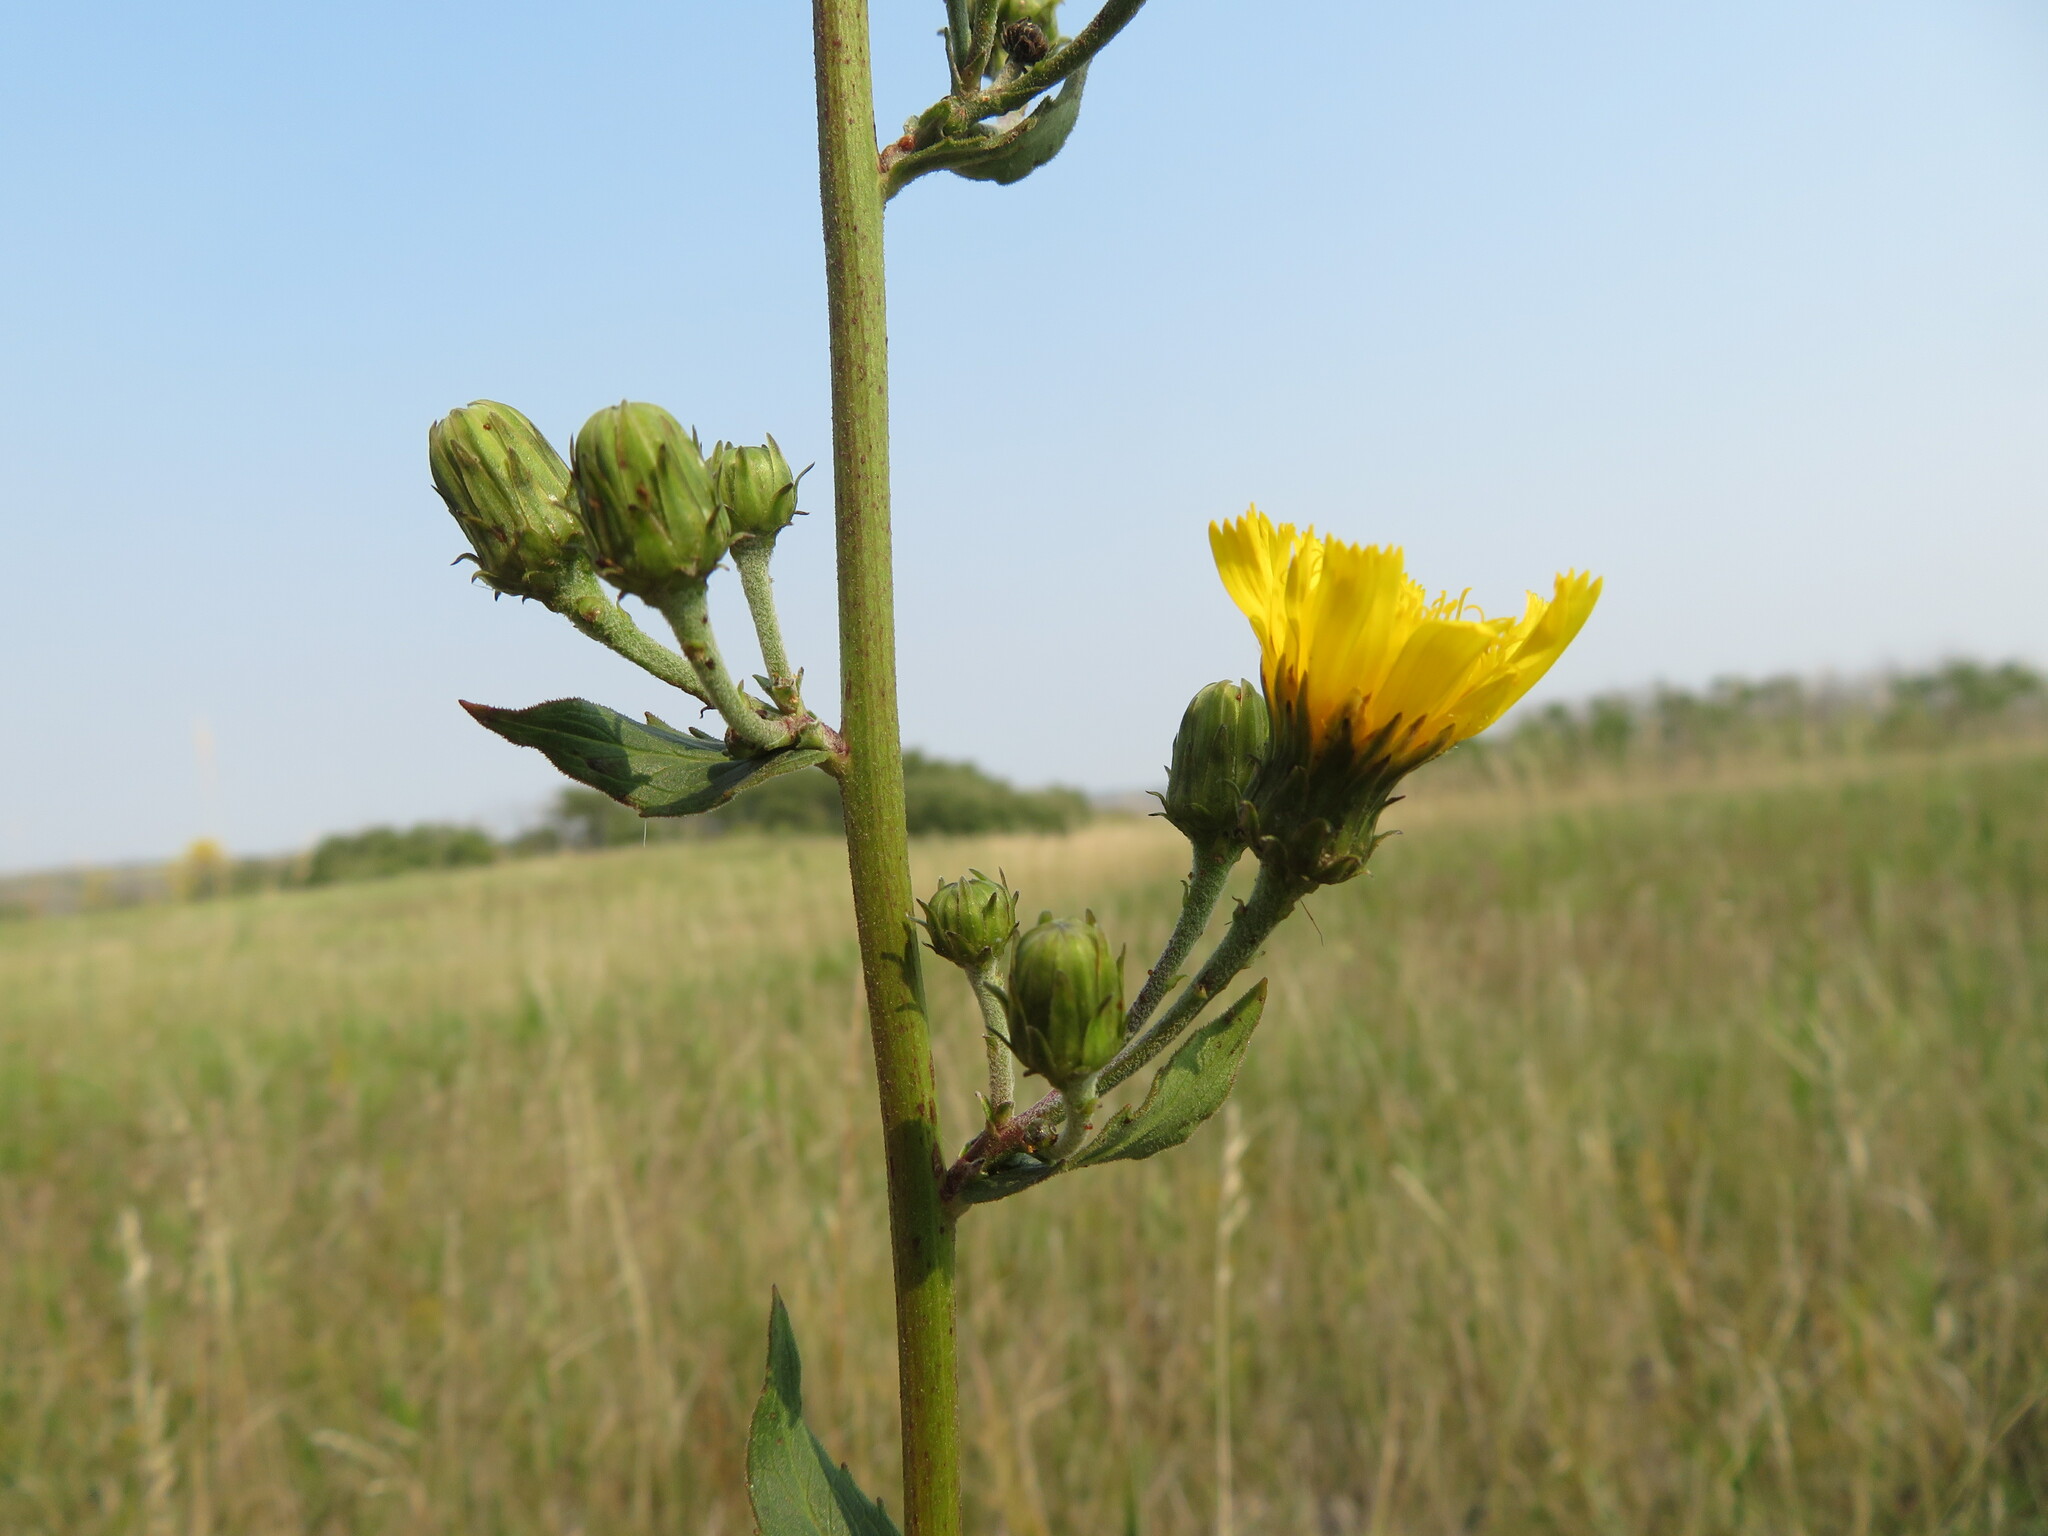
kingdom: Plantae
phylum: Tracheophyta
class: Magnoliopsida
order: Asterales
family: Asteraceae
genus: Hieracium
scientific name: Hieracium umbellatum
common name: Northern hawkweed
